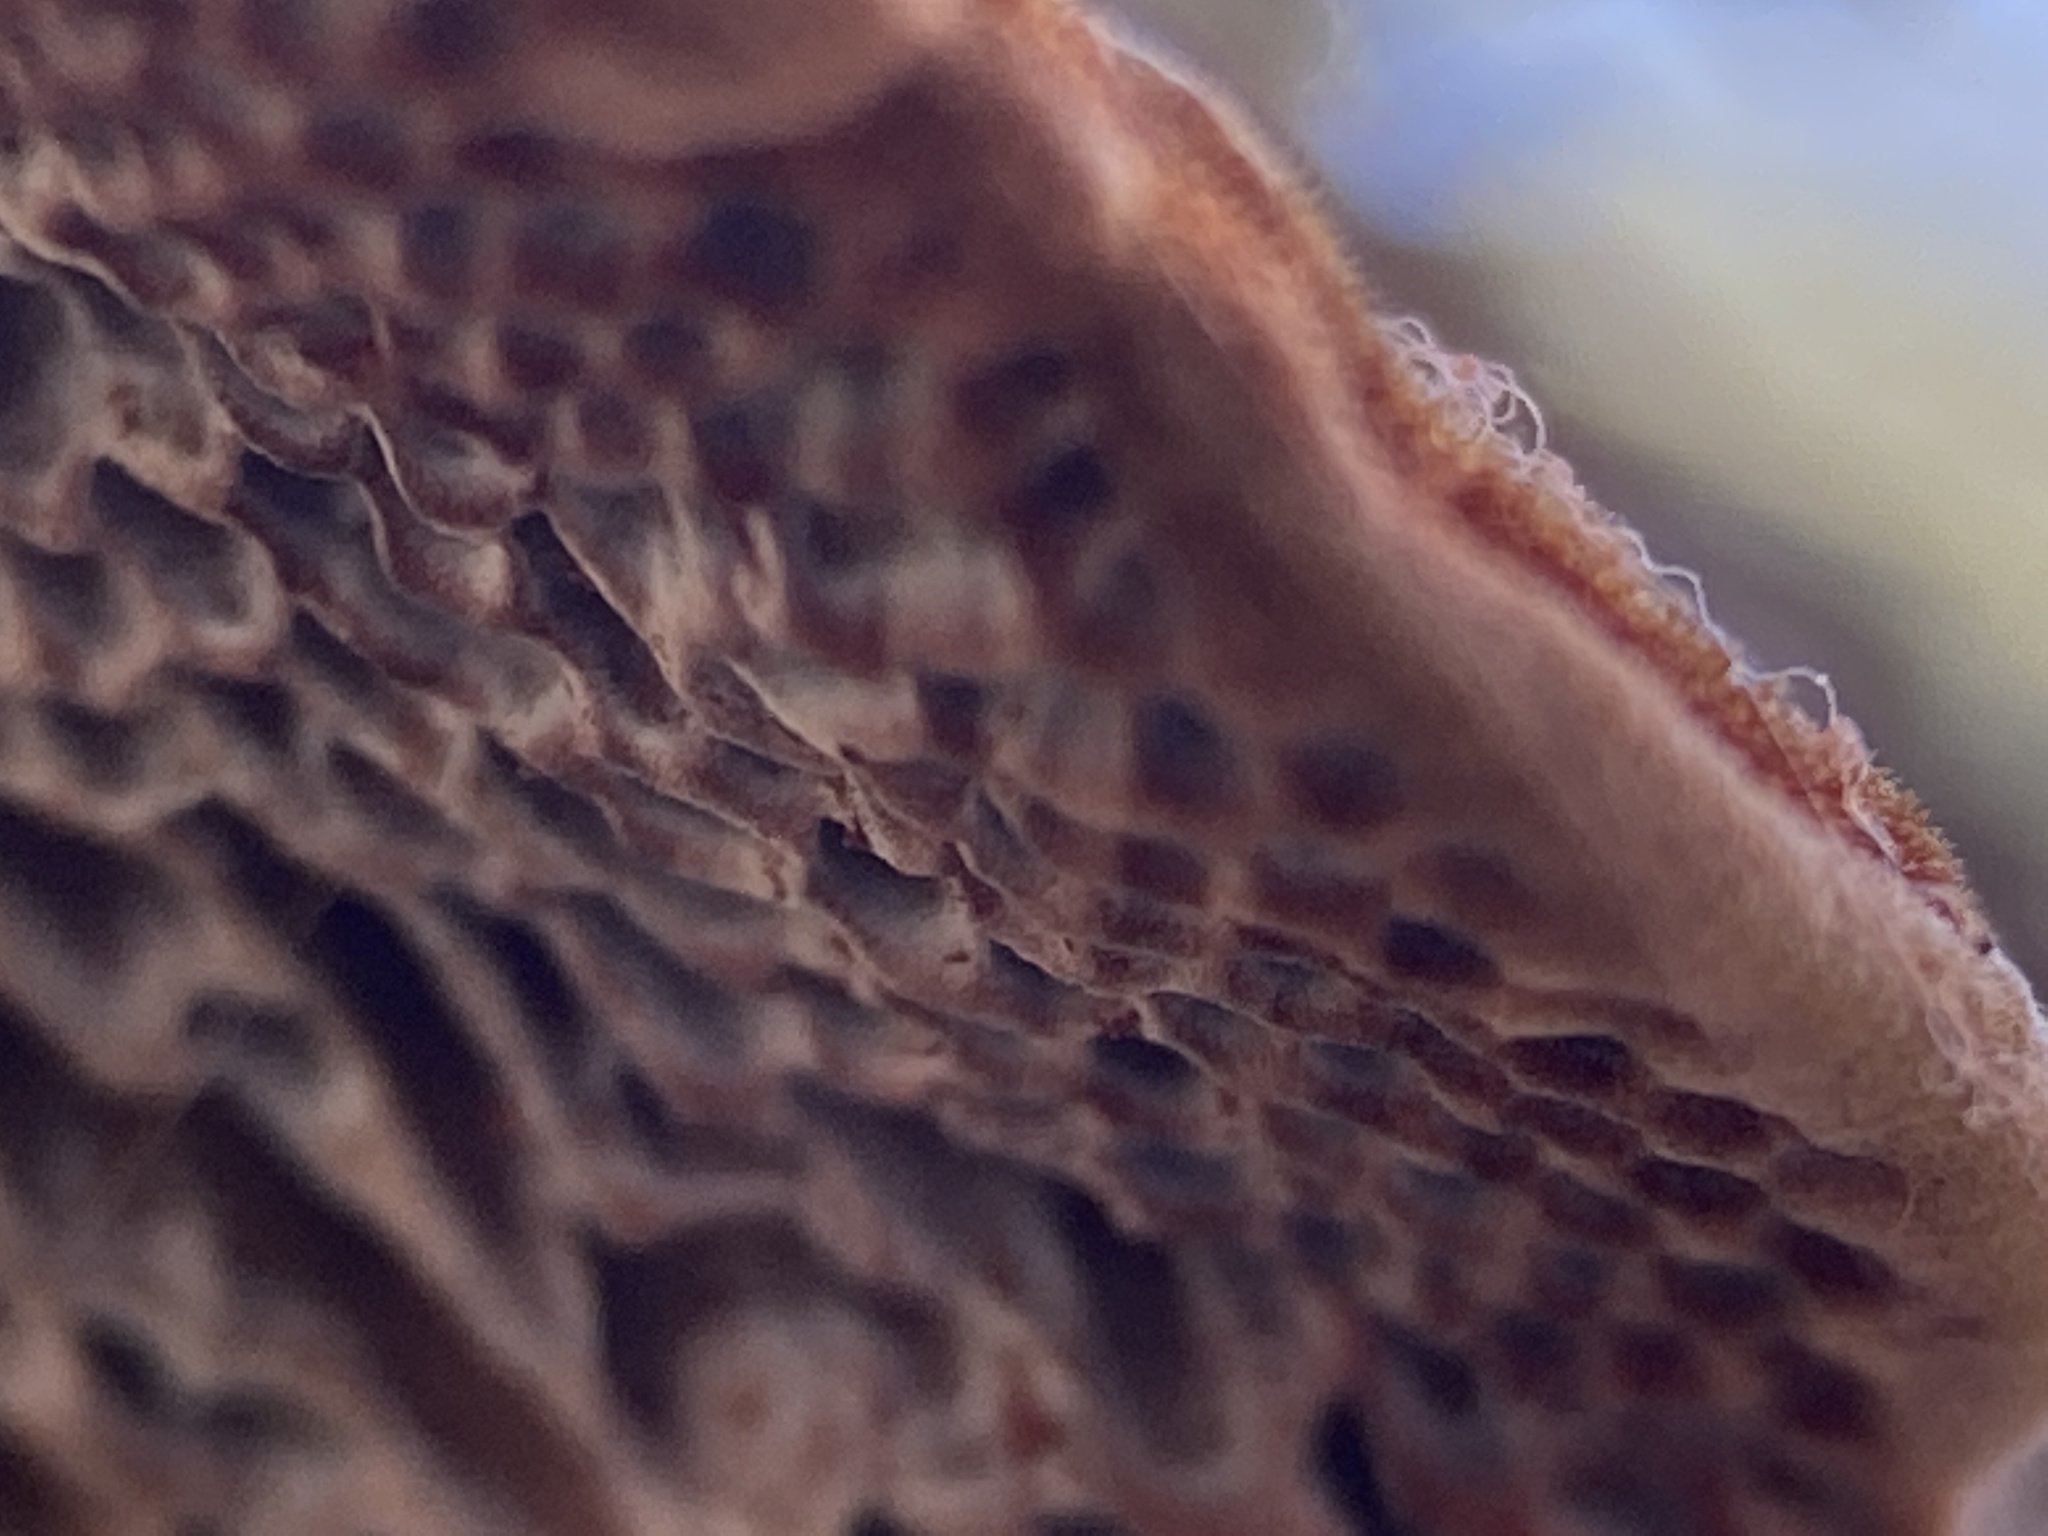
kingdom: Fungi
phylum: Basidiomycota
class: Agaricomycetes
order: Polyporales
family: Polyporaceae
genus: Phaeotrametes
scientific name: Phaeotrametes decipiens
